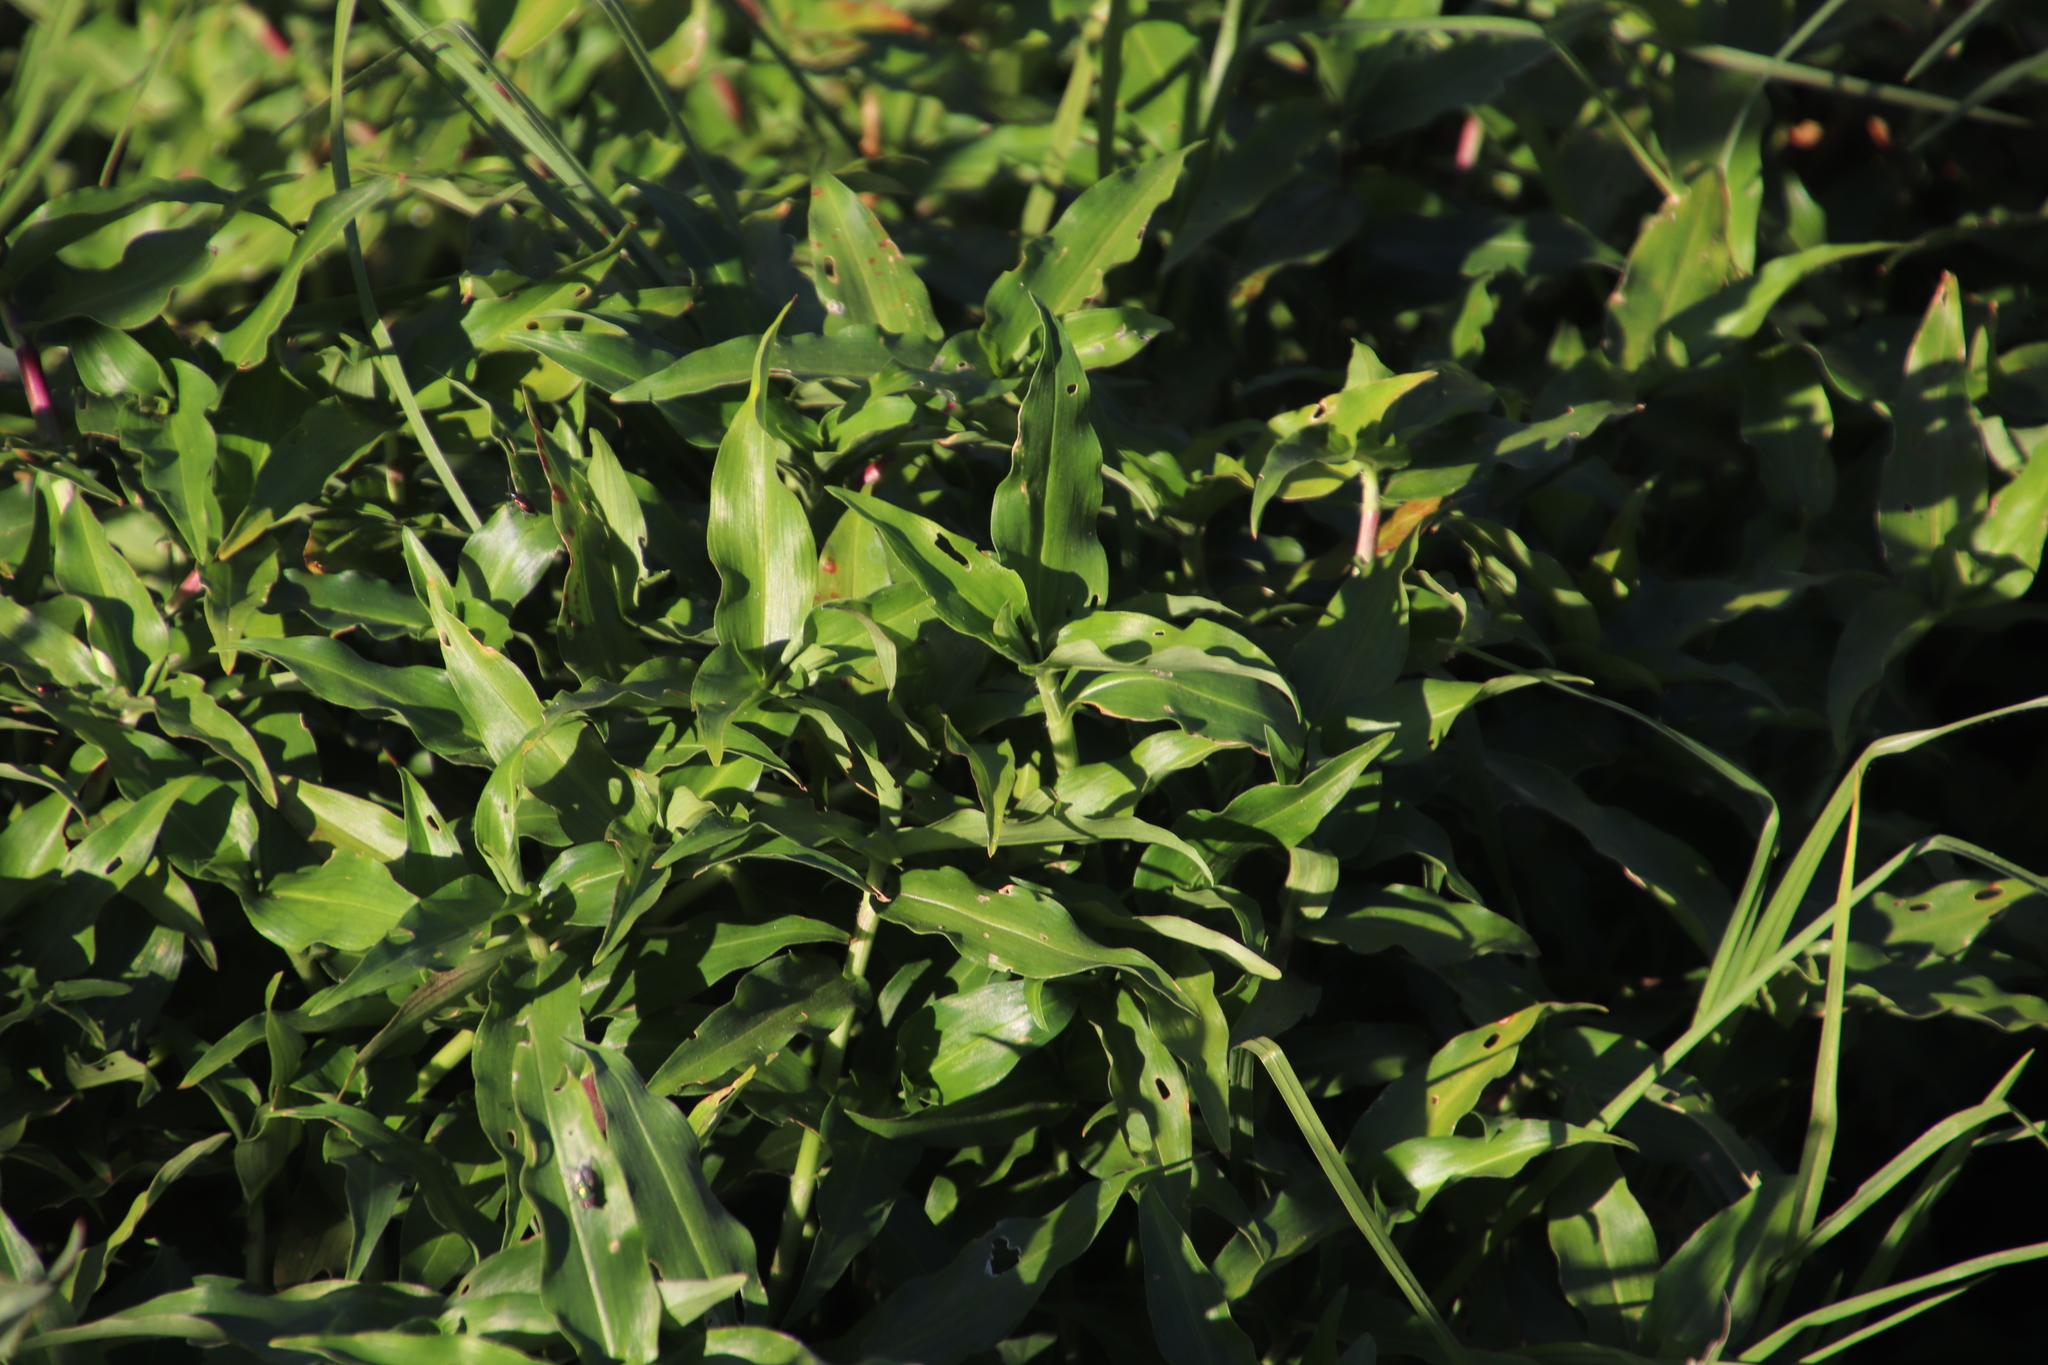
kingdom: Plantae
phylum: Tracheophyta
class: Liliopsida
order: Commelinales
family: Commelinaceae
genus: Commelina
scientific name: Commelina diffusa
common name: Climbing dayflower
